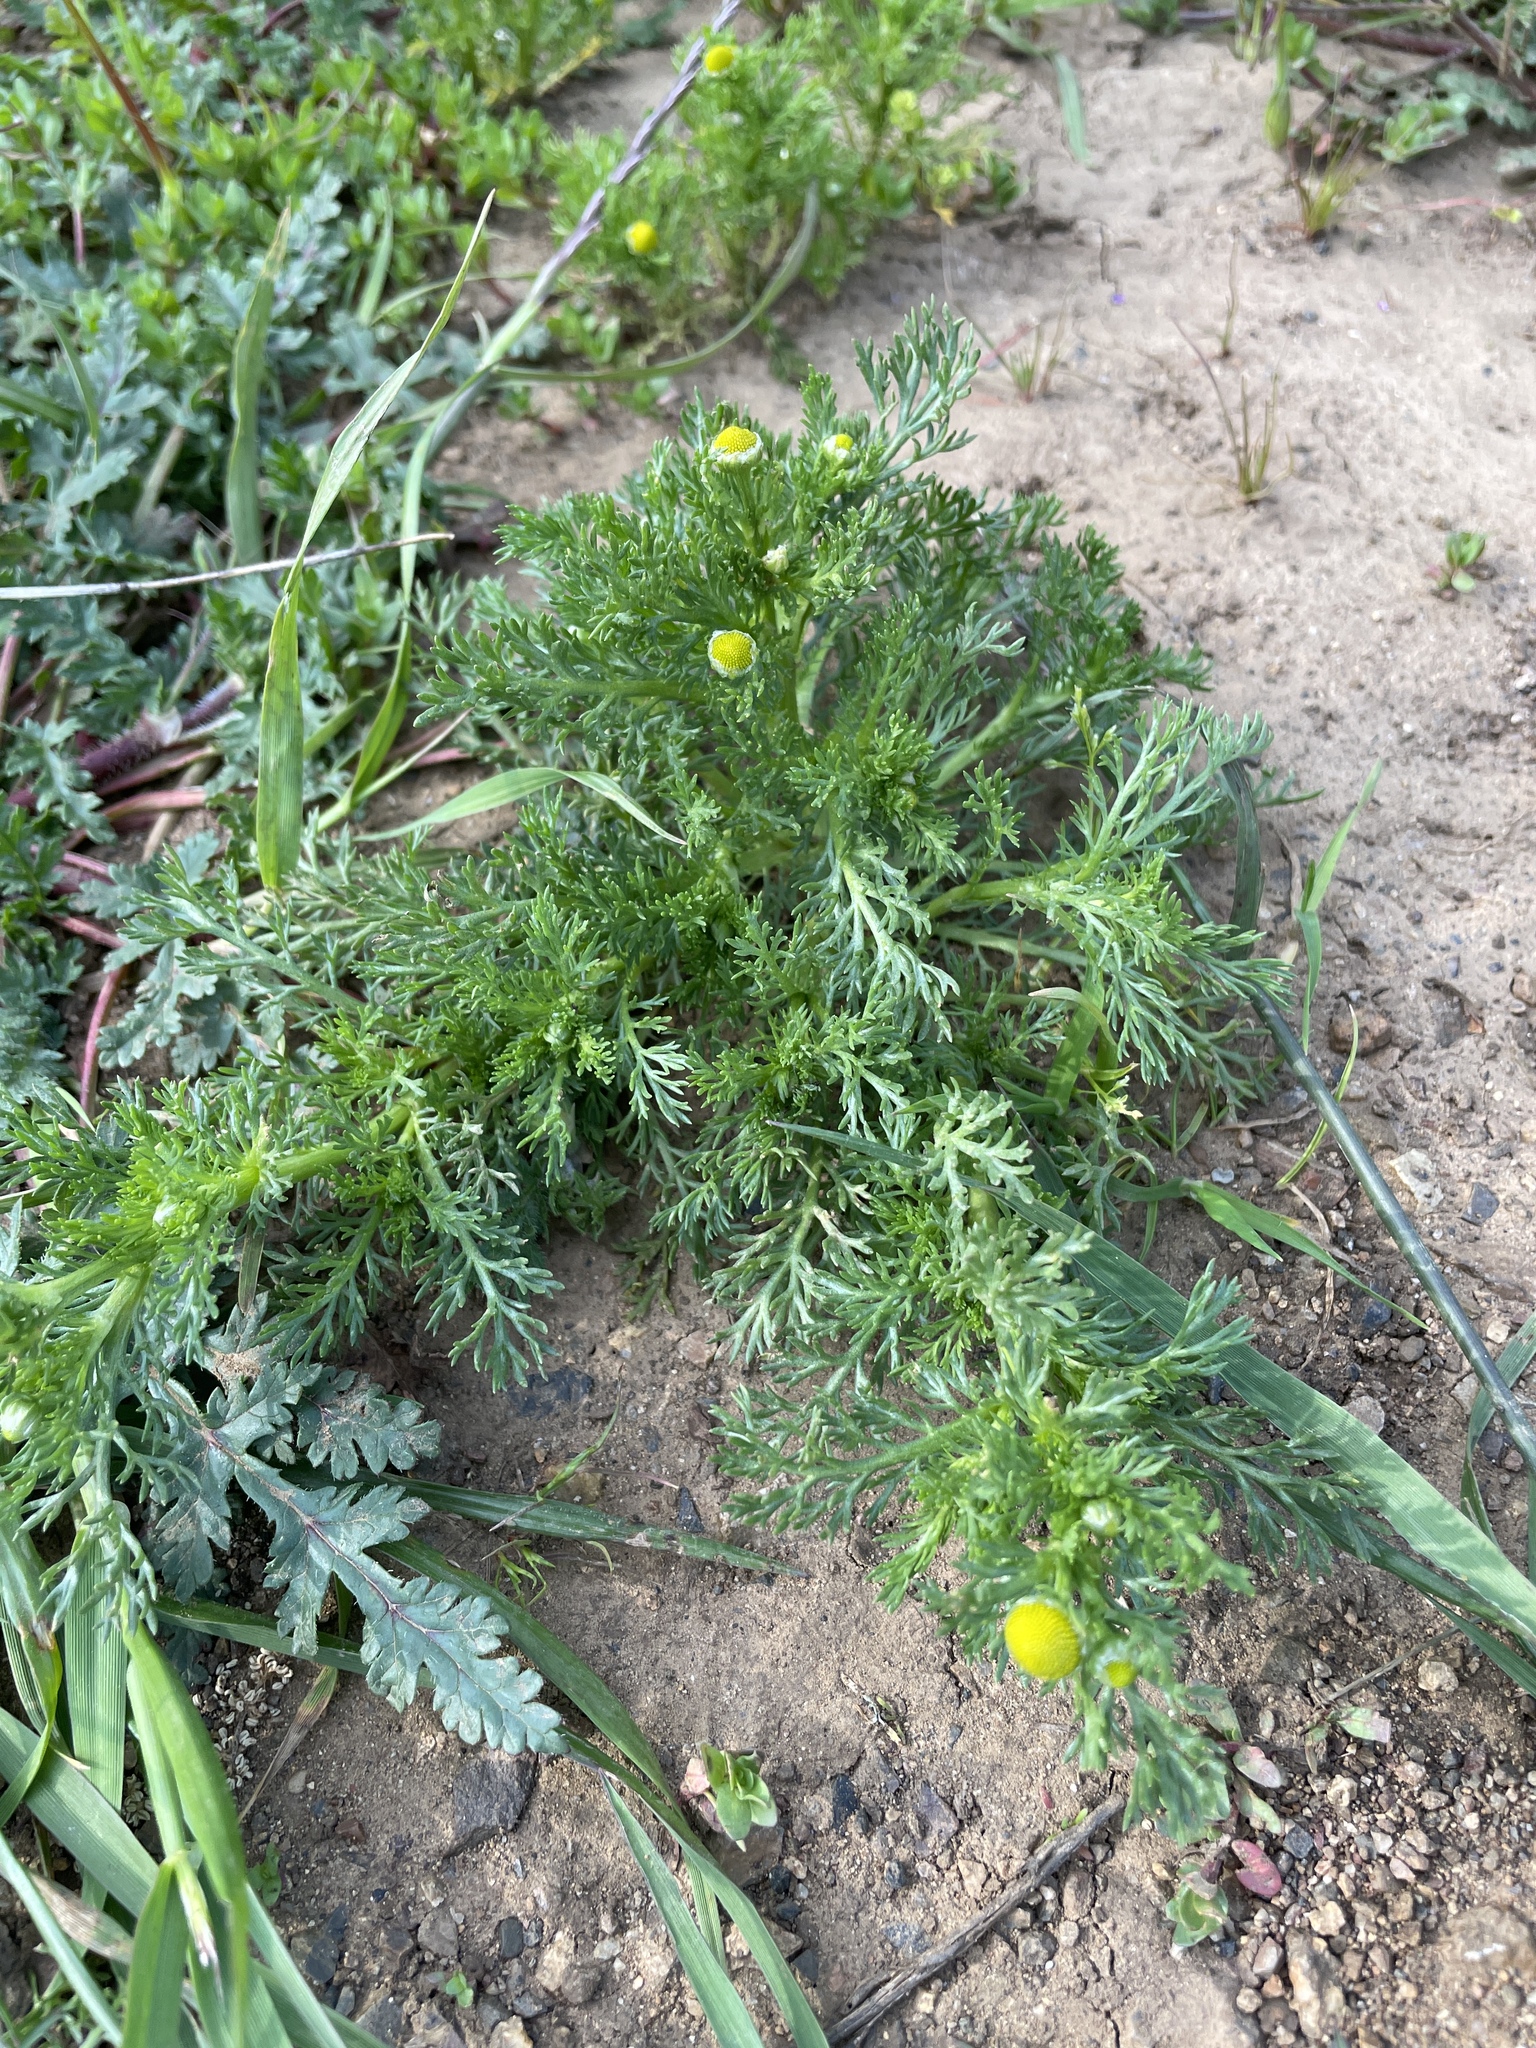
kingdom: Plantae
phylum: Tracheophyta
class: Magnoliopsida
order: Asterales
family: Asteraceae
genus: Matricaria
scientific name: Matricaria discoidea
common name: Disc mayweed
